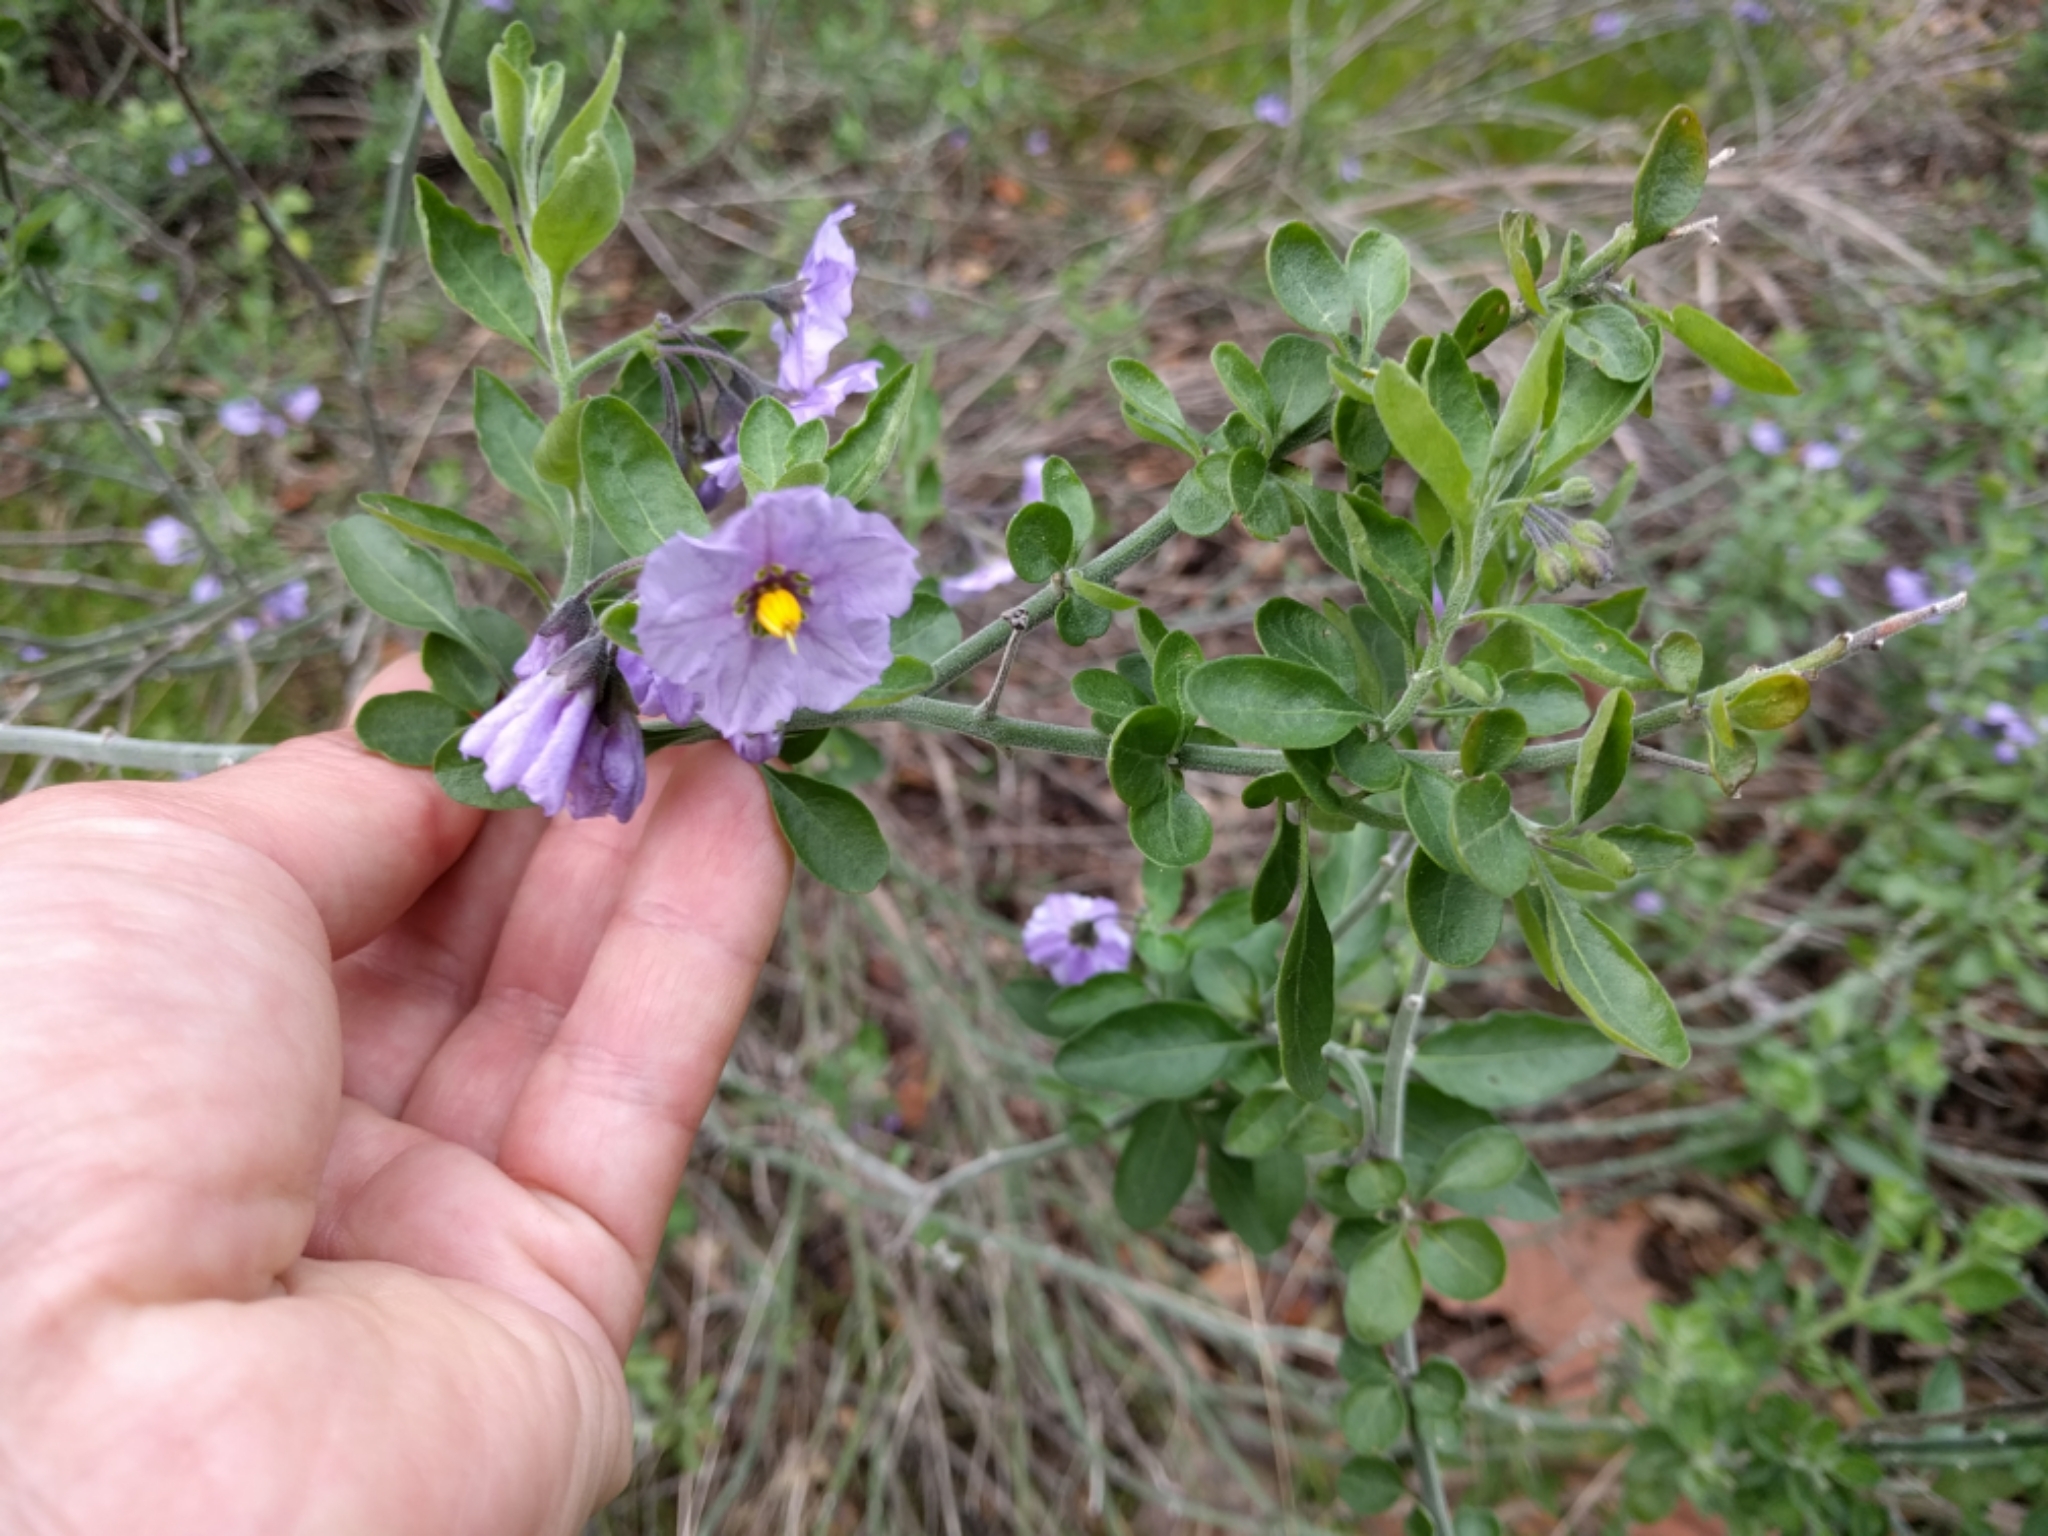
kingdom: Plantae
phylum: Tracheophyta
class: Magnoliopsida
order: Solanales
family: Solanaceae
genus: Solanum
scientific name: Solanum umbelliferum
